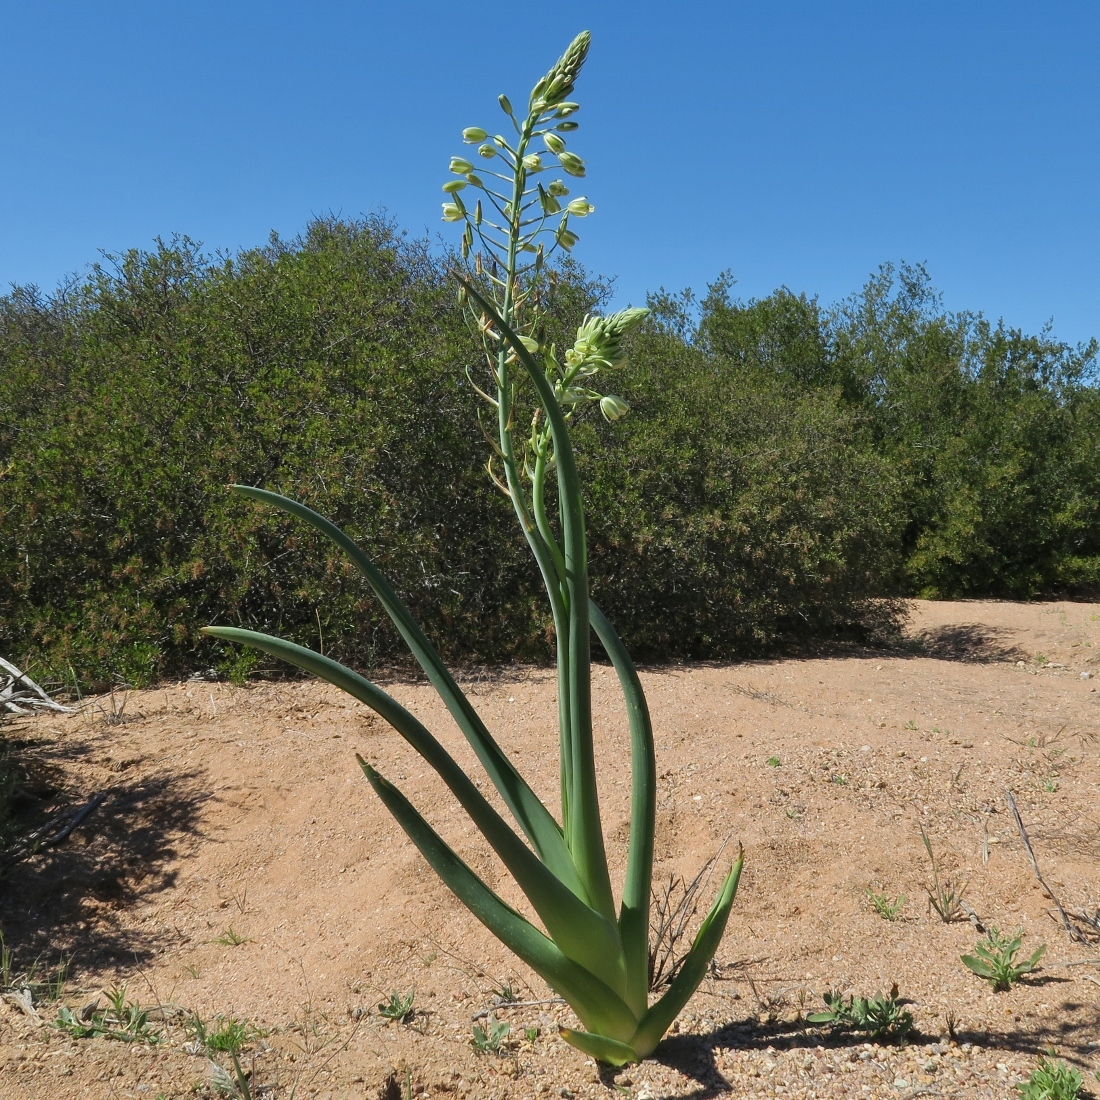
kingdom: Plantae
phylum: Tracheophyta
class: Liliopsida
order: Asparagales
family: Asparagaceae
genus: Albuca
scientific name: Albuca canadensis
